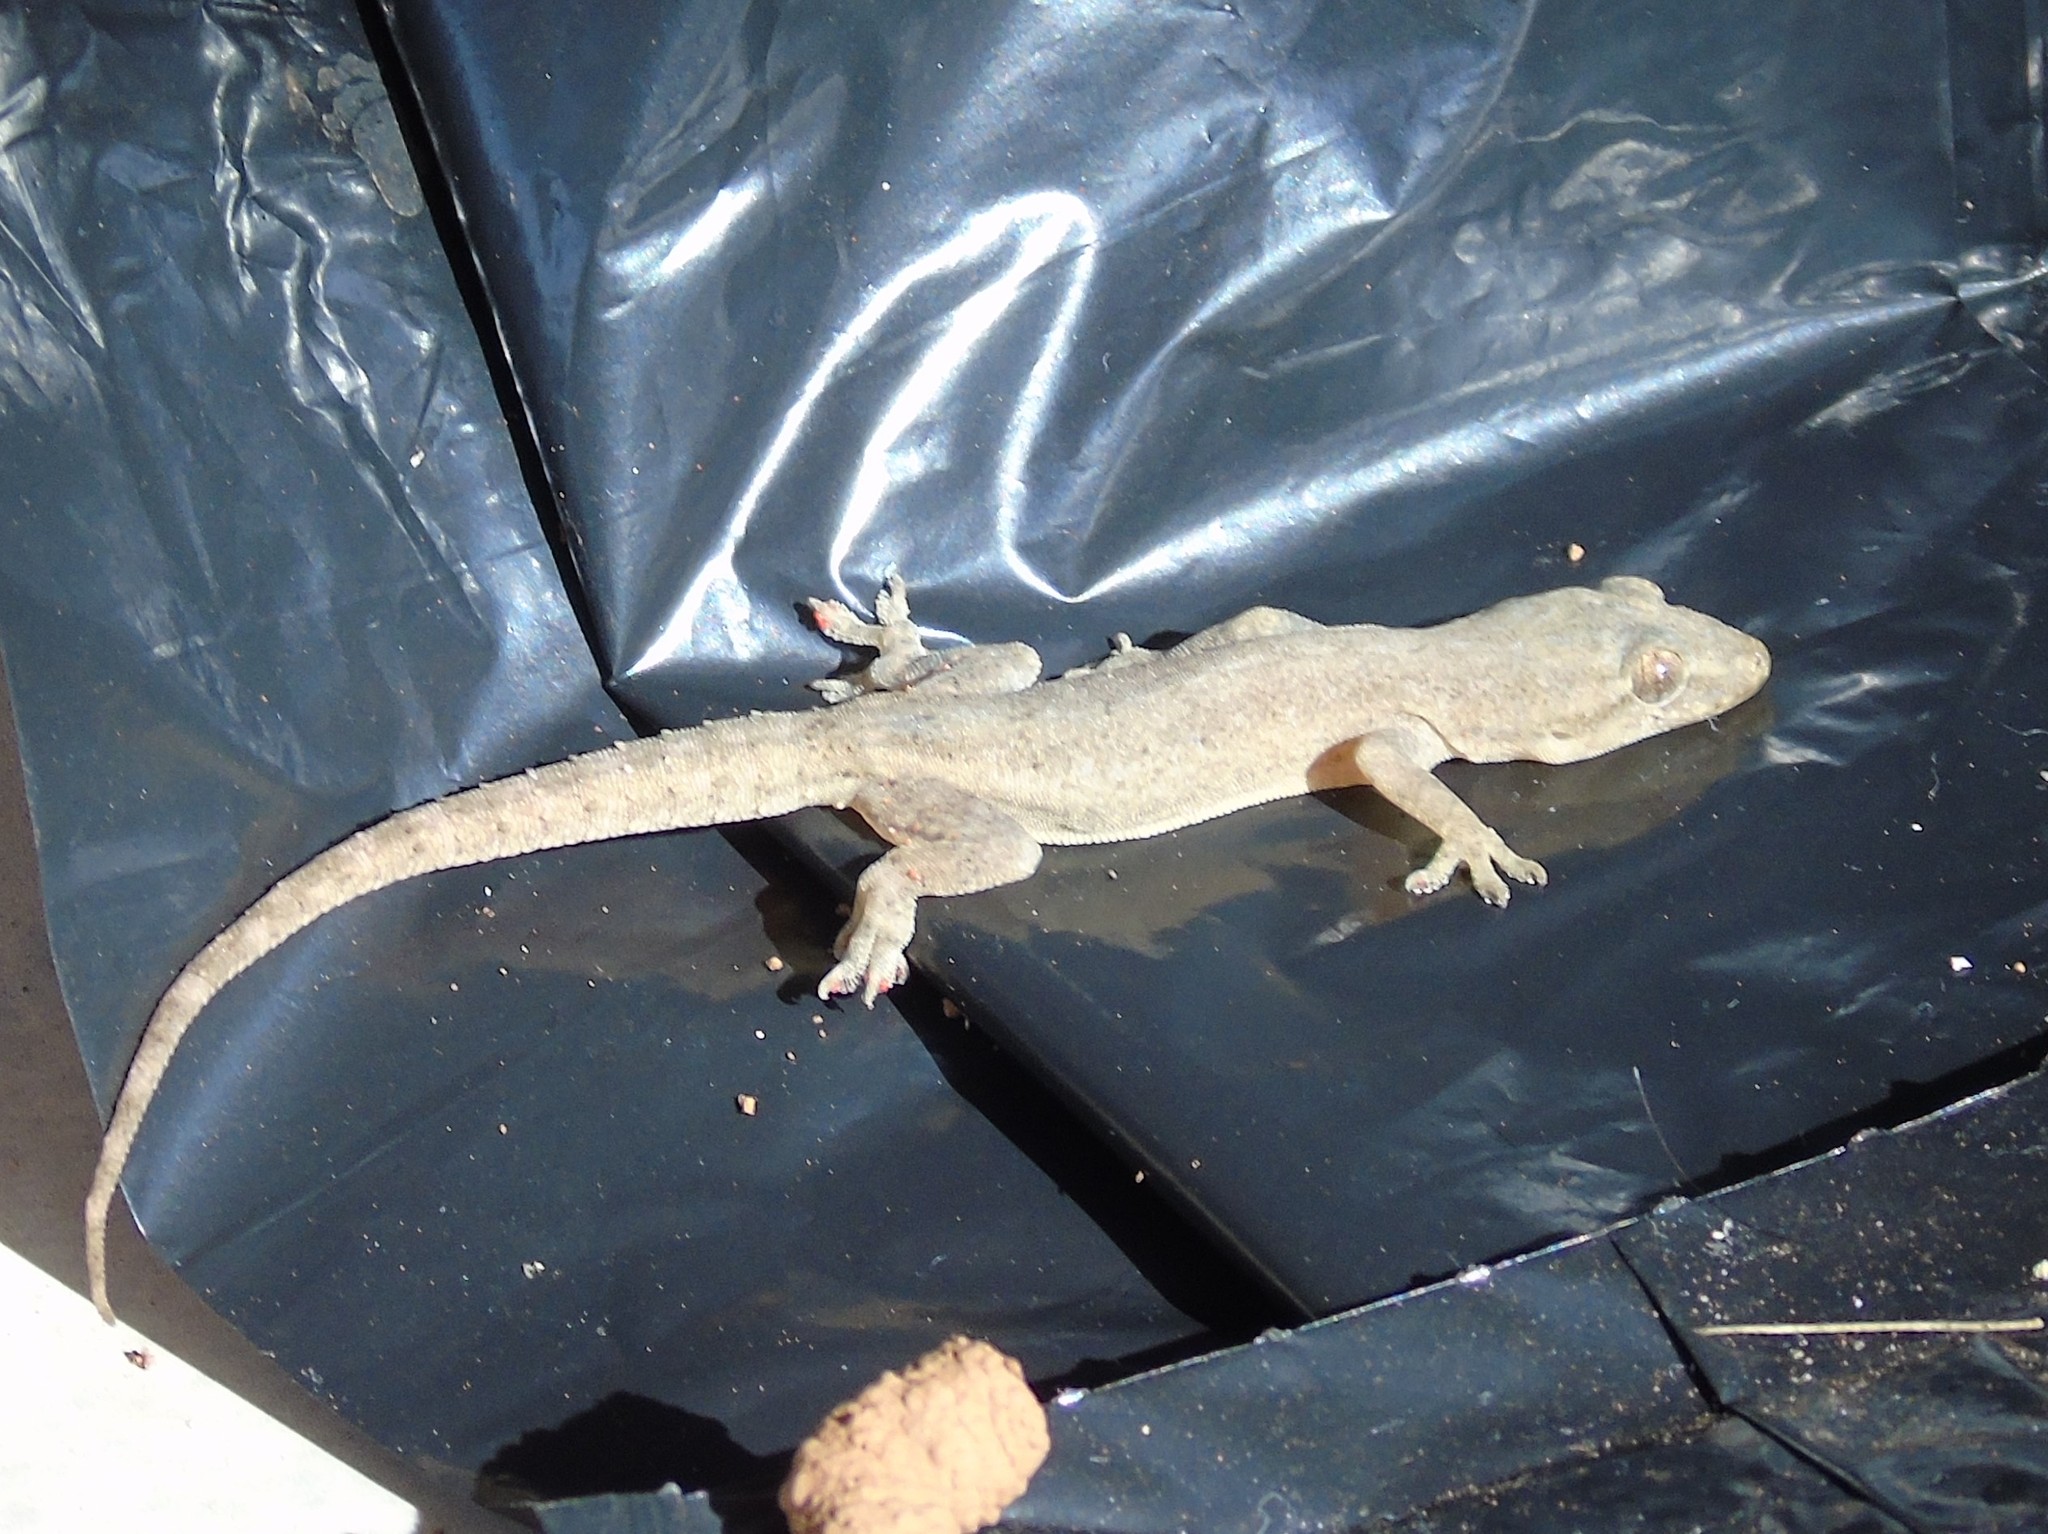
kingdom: Animalia
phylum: Chordata
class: Squamata
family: Gekkonidae
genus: Hemidactylus
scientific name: Hemidactylus frenatus
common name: Common house gecko
